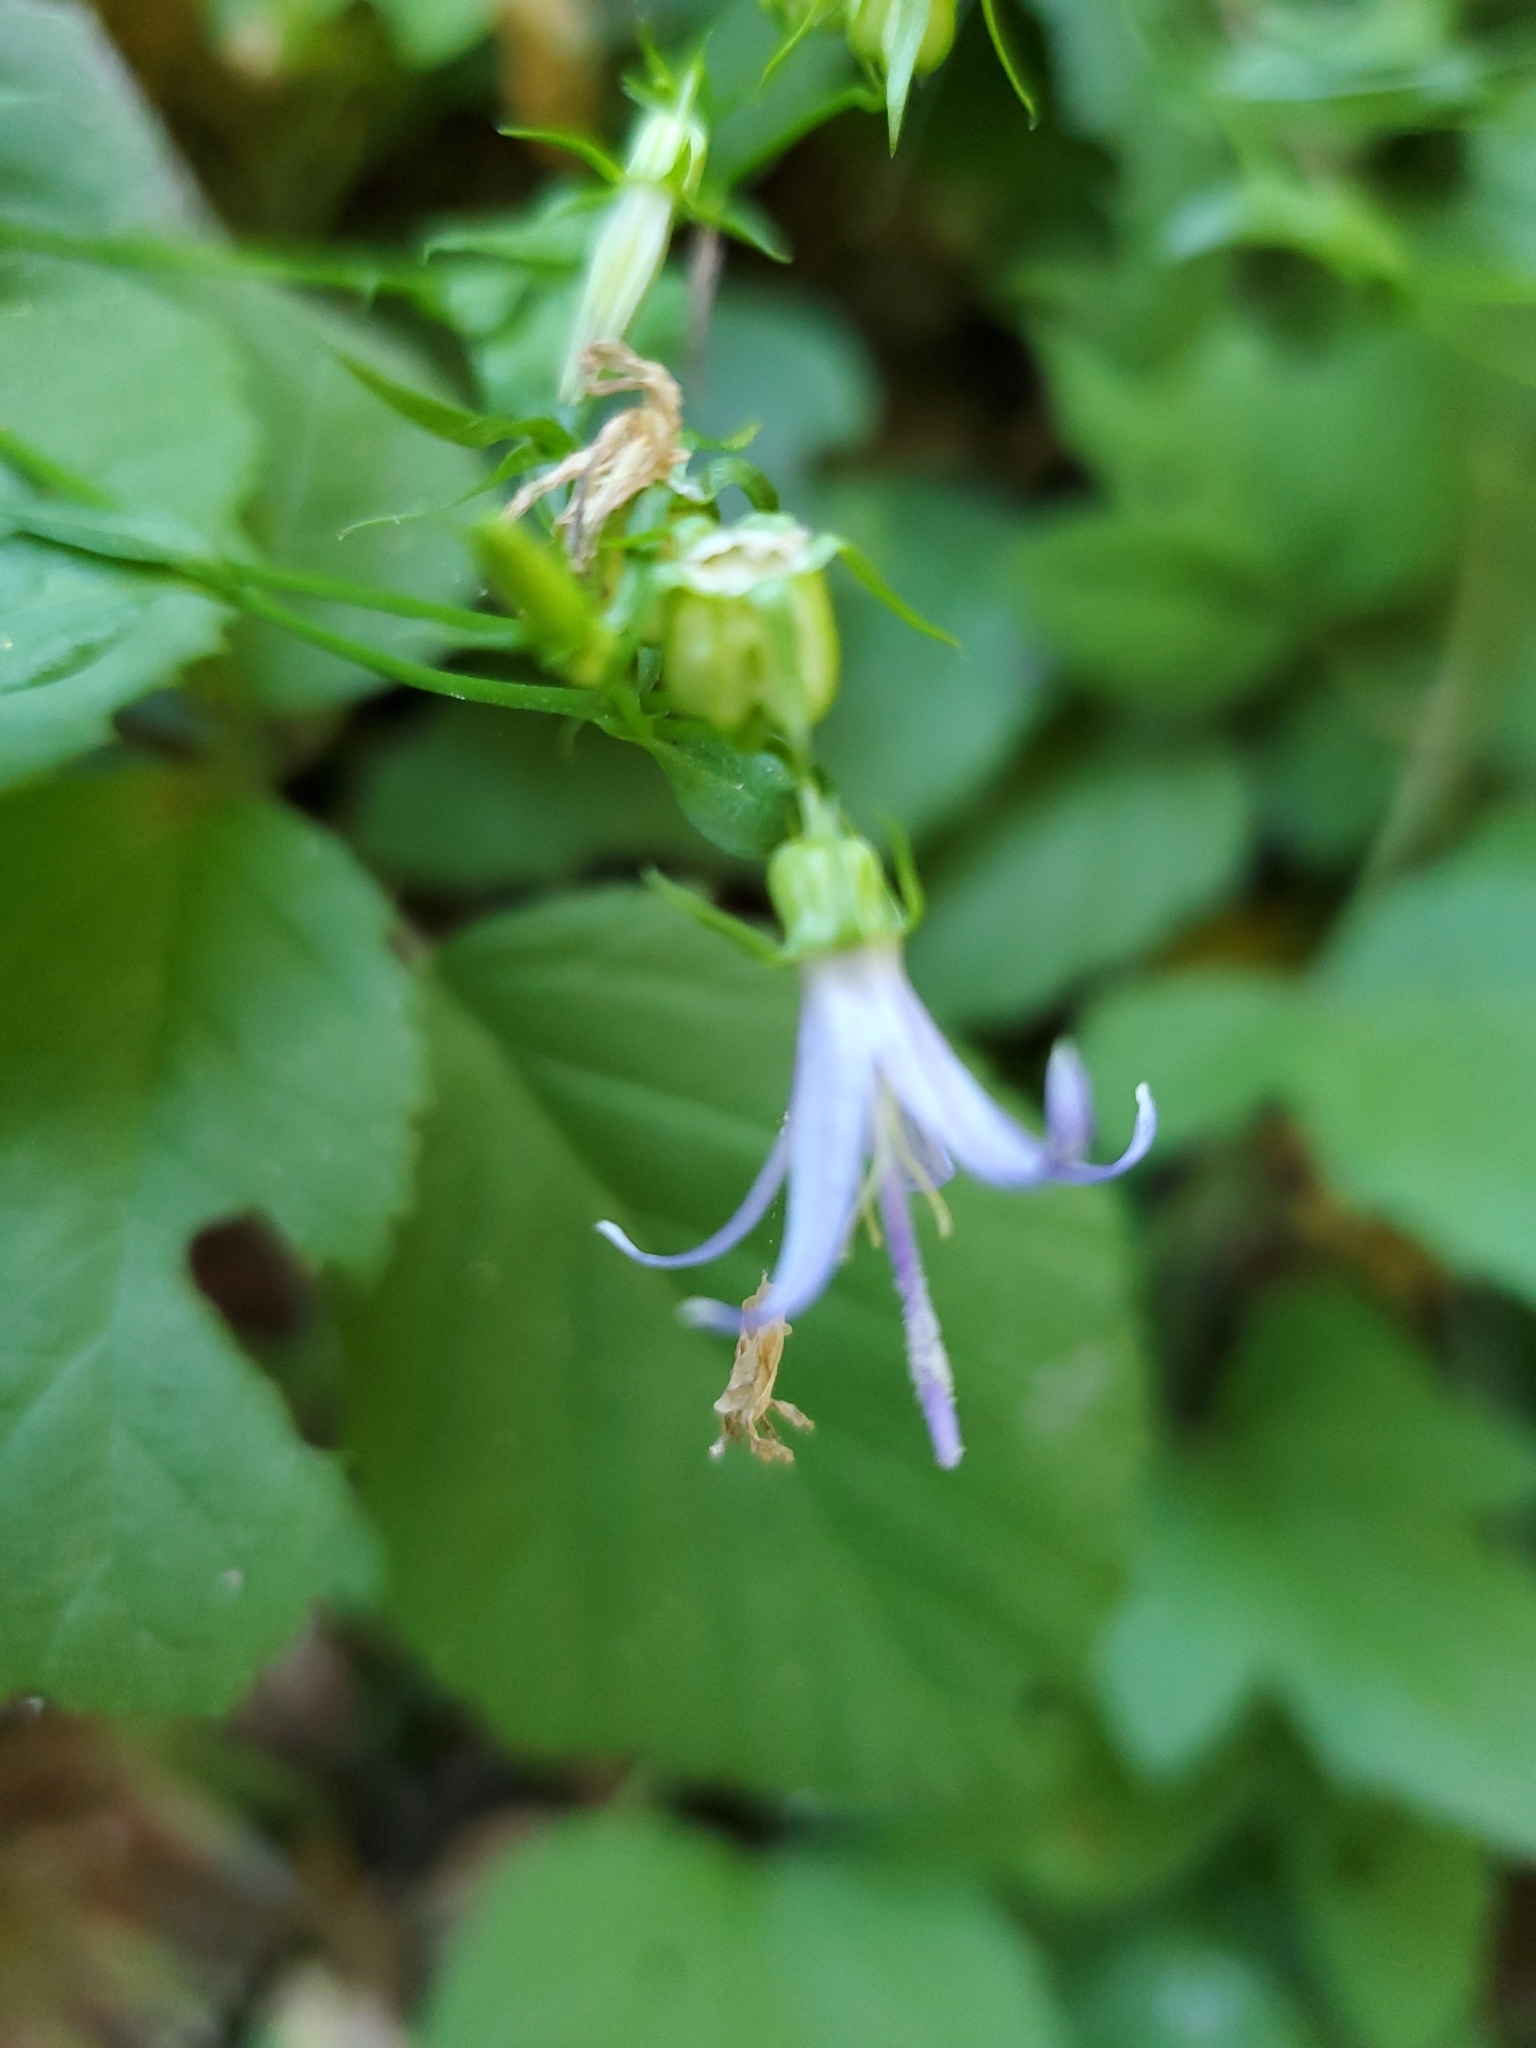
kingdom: Plantae
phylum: Tracheophyta
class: Magnoliopsida
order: Asterales
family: Campanulaceae
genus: Smithiastrum
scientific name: Smithiastrum prenanthoides
